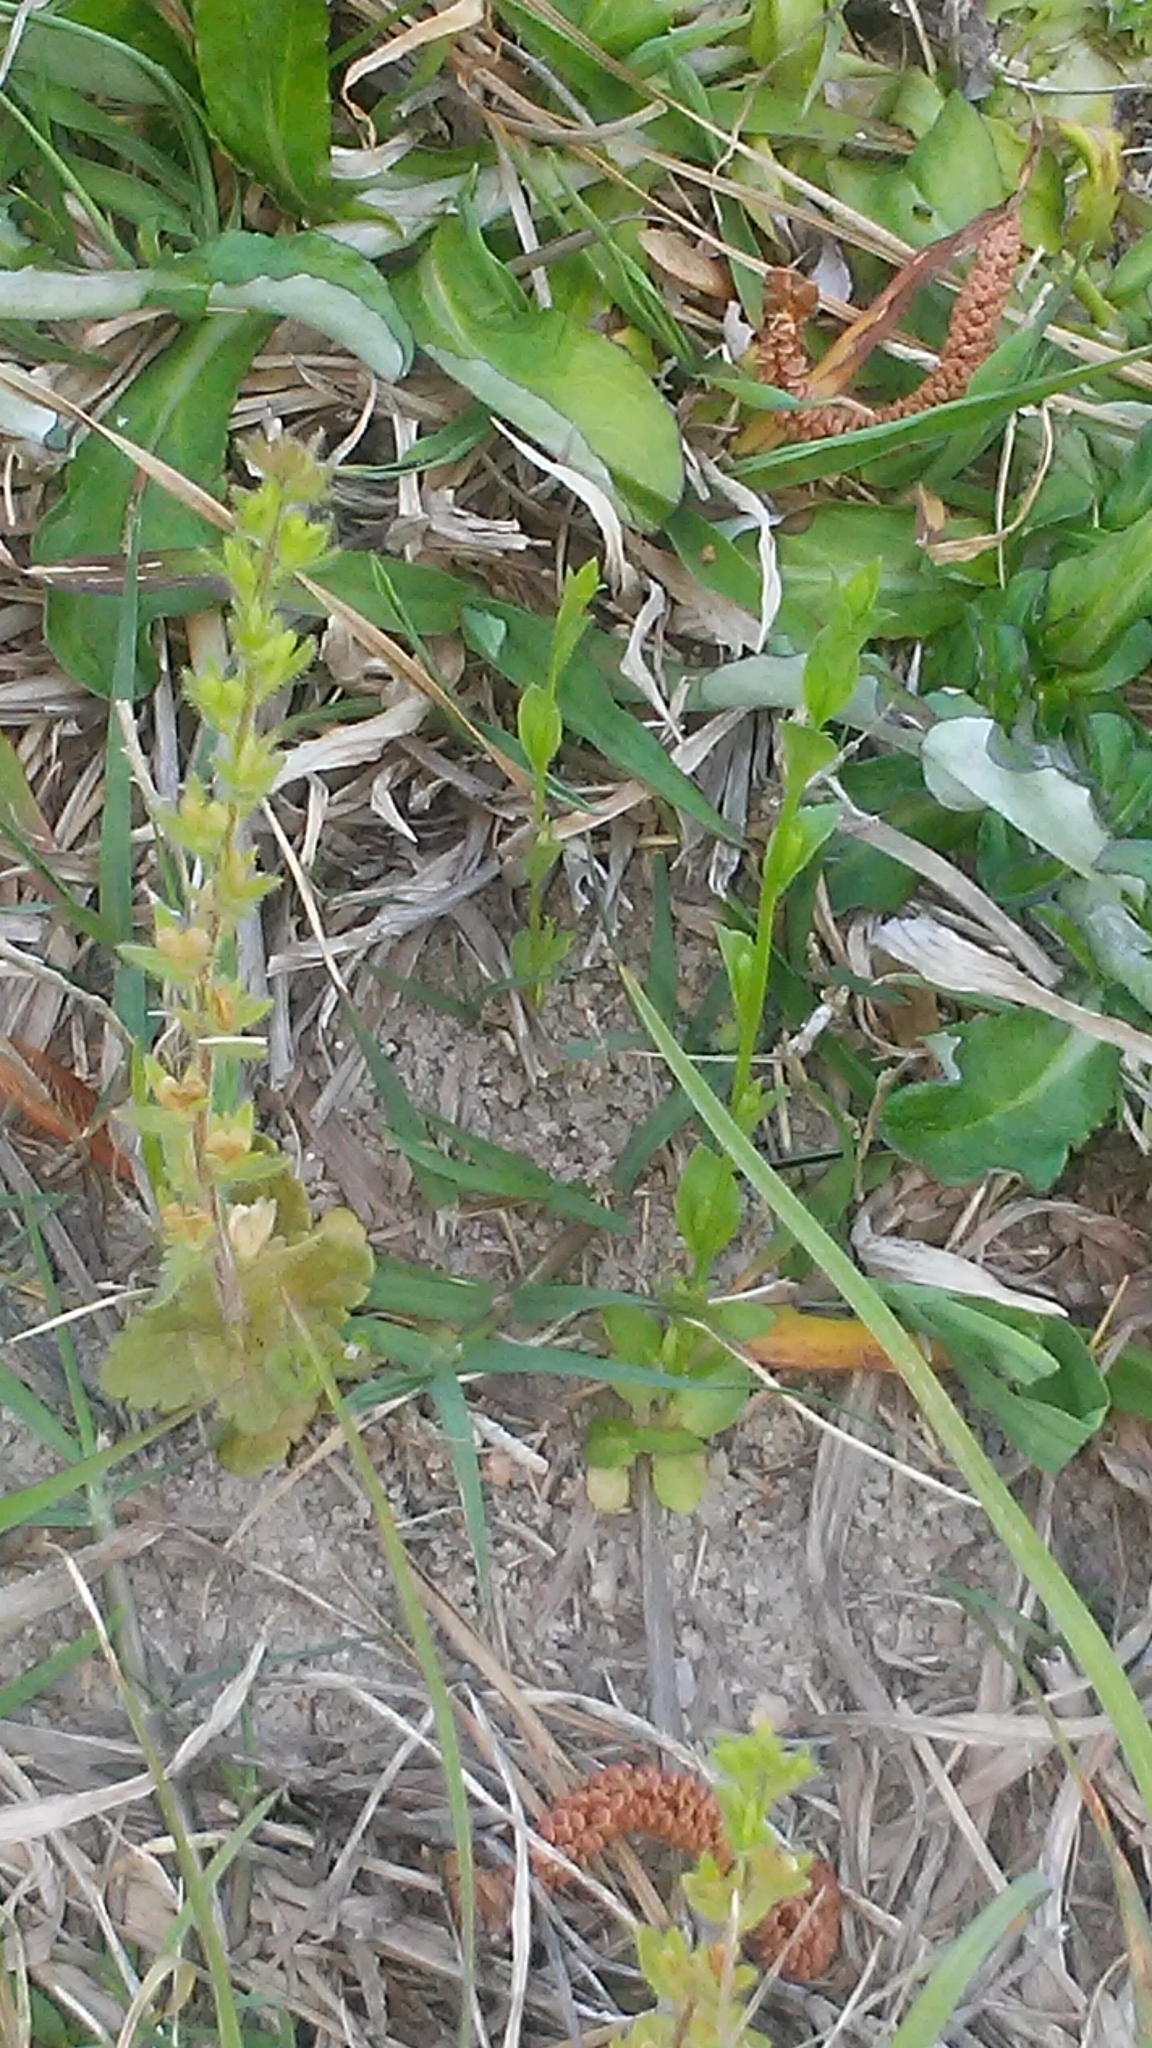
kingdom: Plantae
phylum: Tracheophyta
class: Magnoliopsida
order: Lamiales
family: Plantaginaceae
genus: Veronica
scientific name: Veronica arvensis
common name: Corn speedwell
